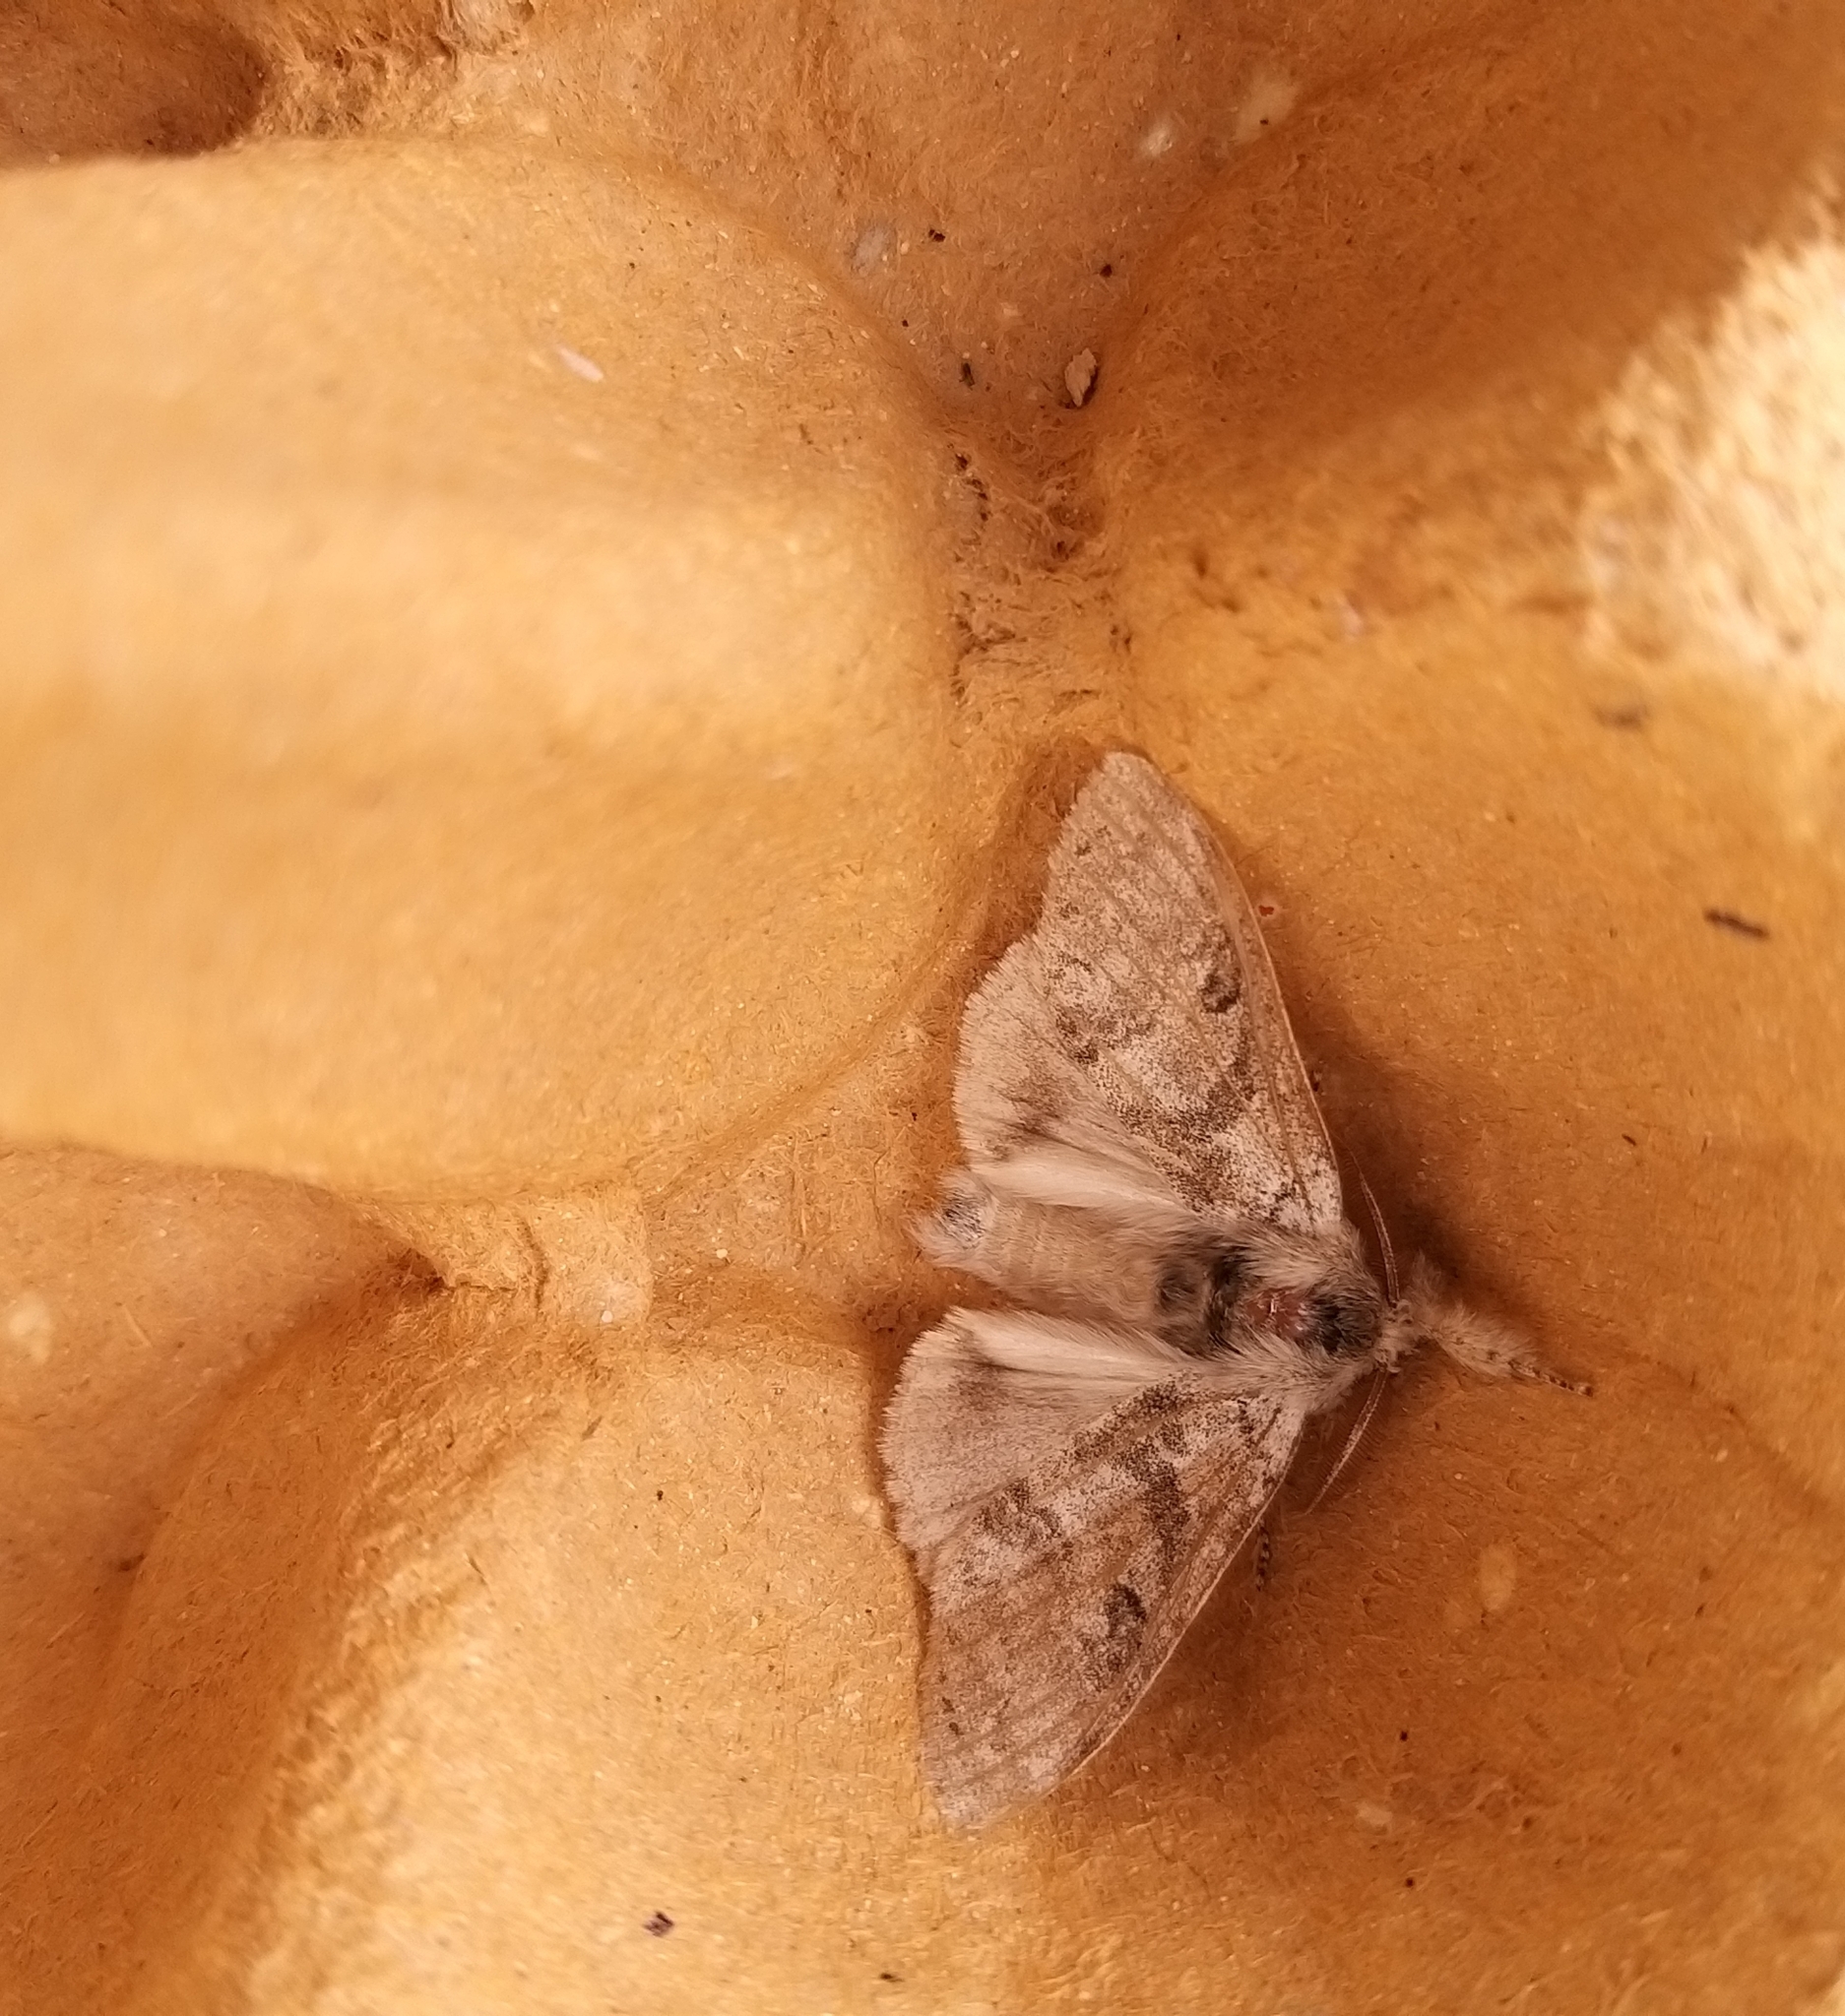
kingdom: Animalia
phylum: Arthropoda
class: Insecta
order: Lepidoptera
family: Erebidae
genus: Calliteara
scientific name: Calliteara pudibunda
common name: Pale tussock
